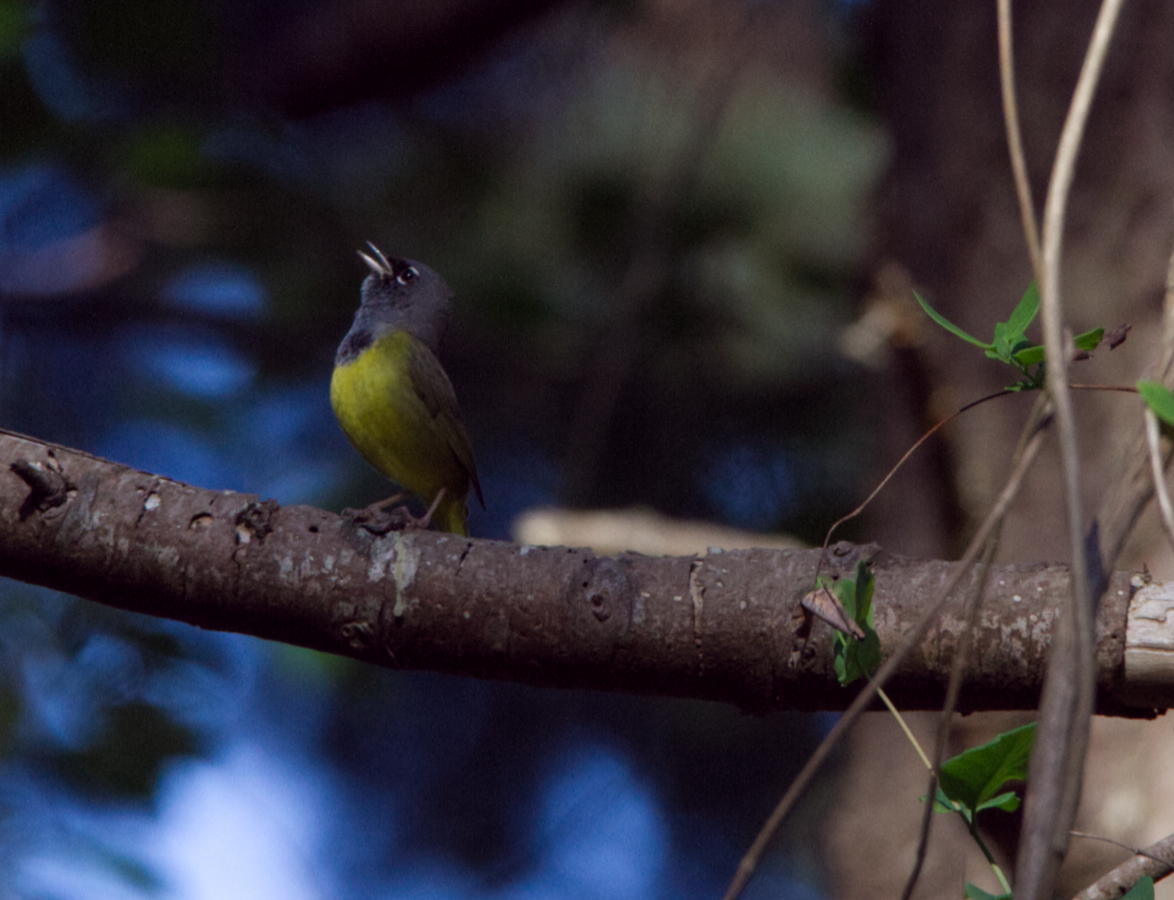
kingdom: Animalia
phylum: Chordata
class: Aves
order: Passeriformes
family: Parulidae
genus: Geothlypis
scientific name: Geothlypis tolmiei
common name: Macgillivray's warbler
